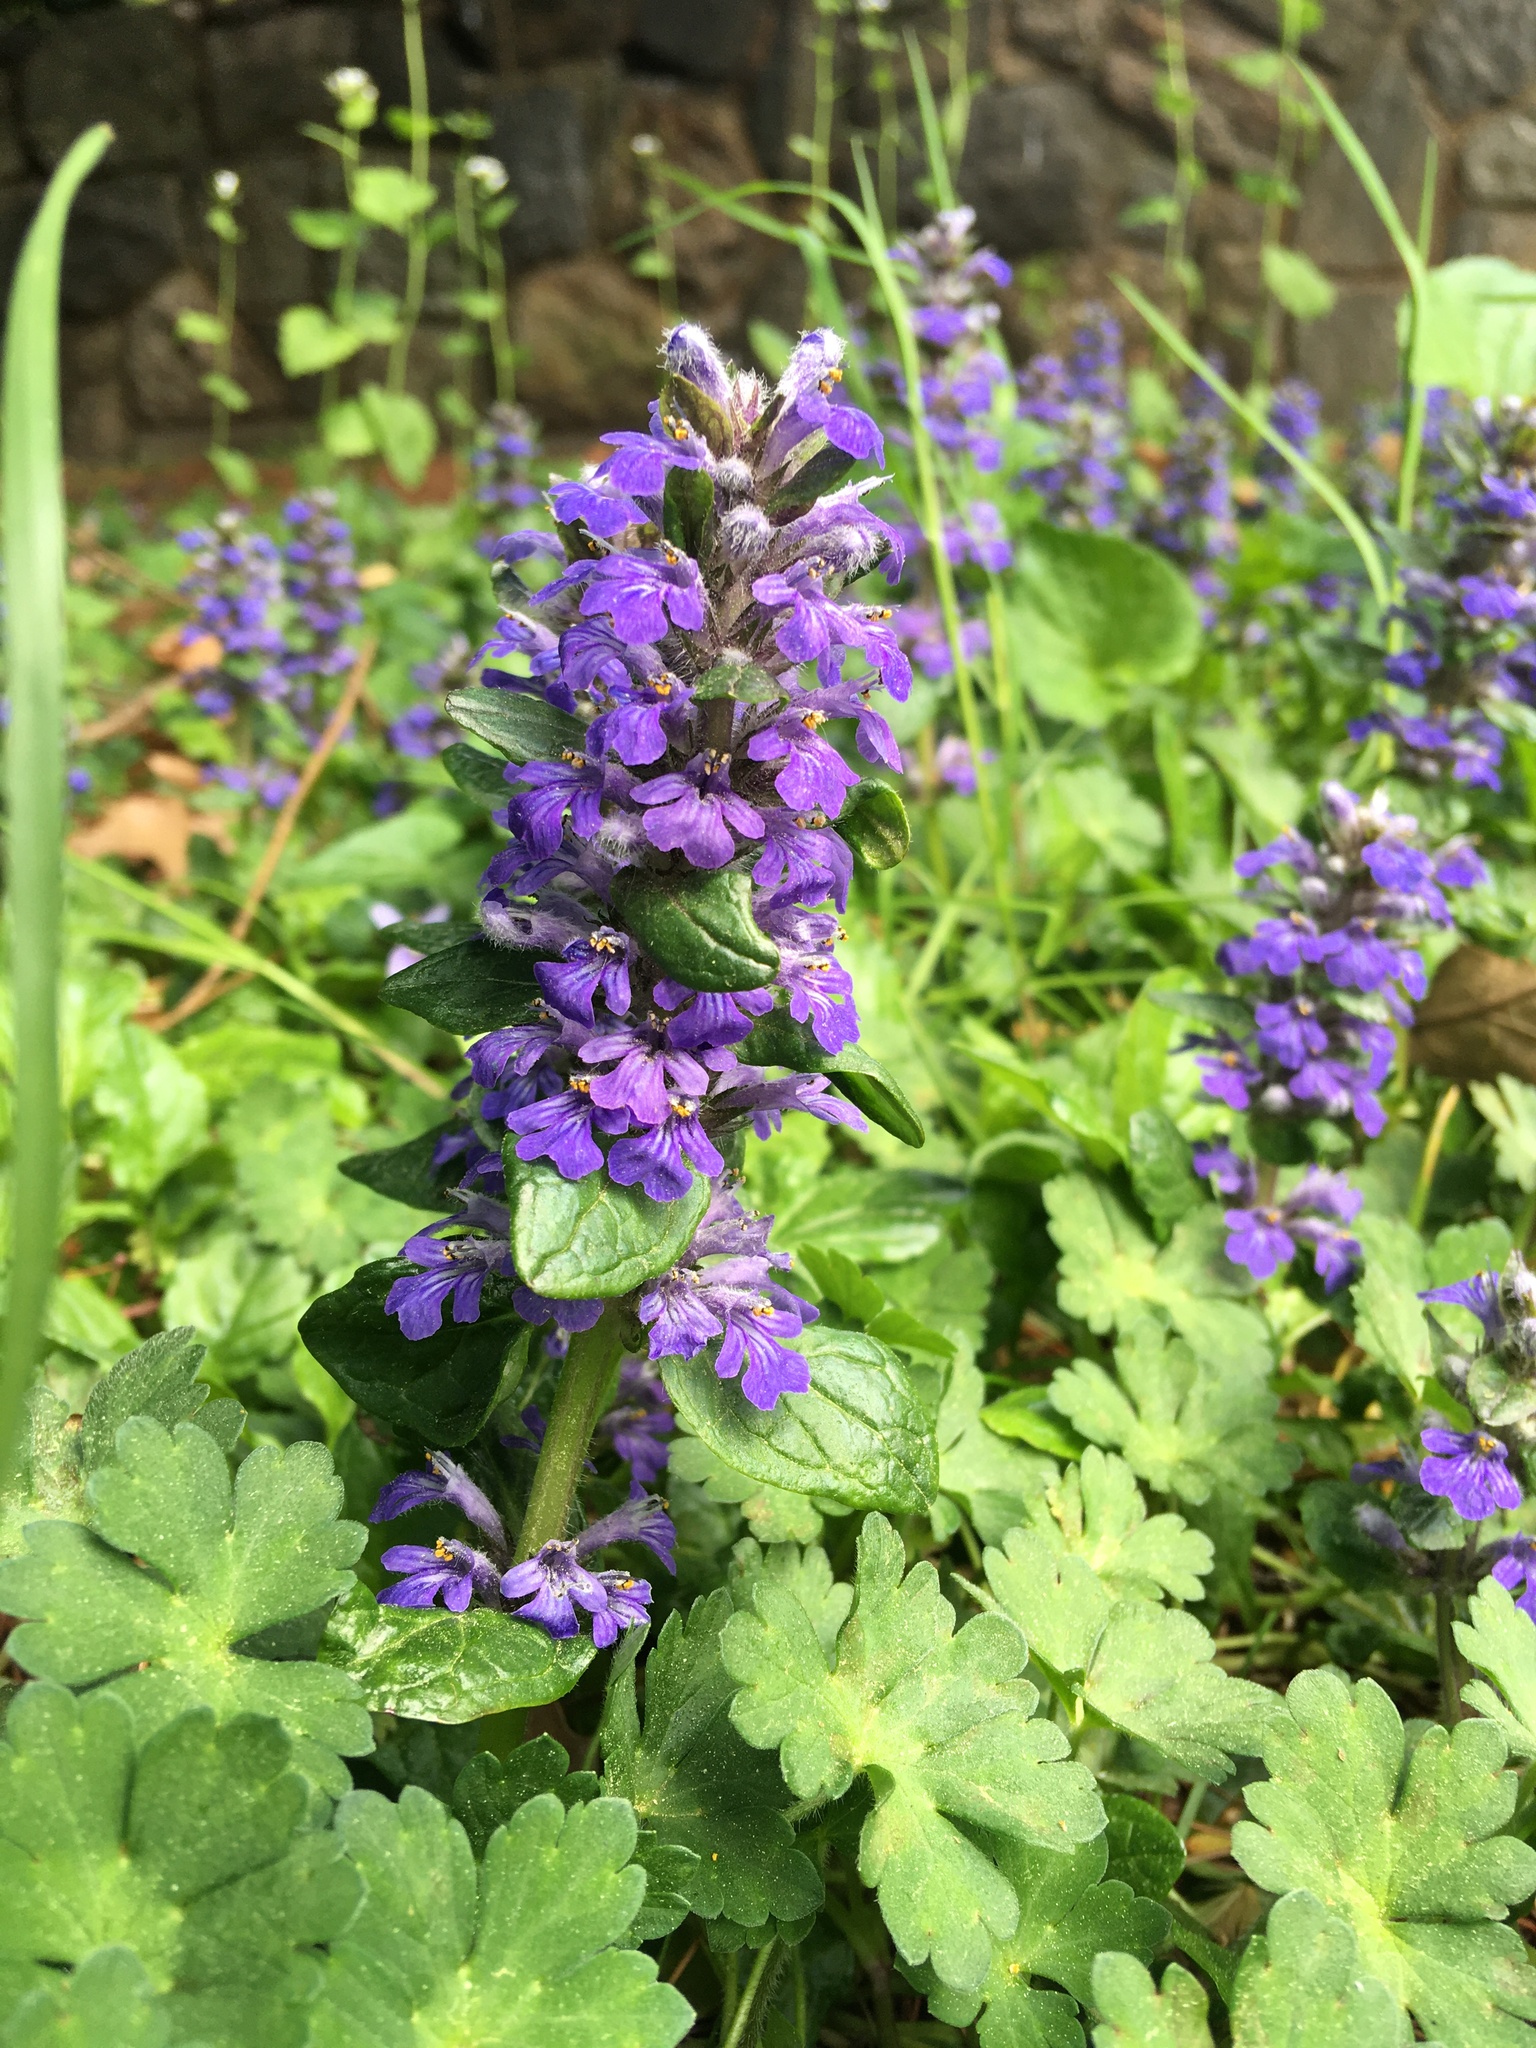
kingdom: Plantae
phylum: Tracheophyta
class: Magnoliopsida
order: Lamiales
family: Lamiaceae
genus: Ajuga
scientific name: Ajuga reptans
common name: Bugle
